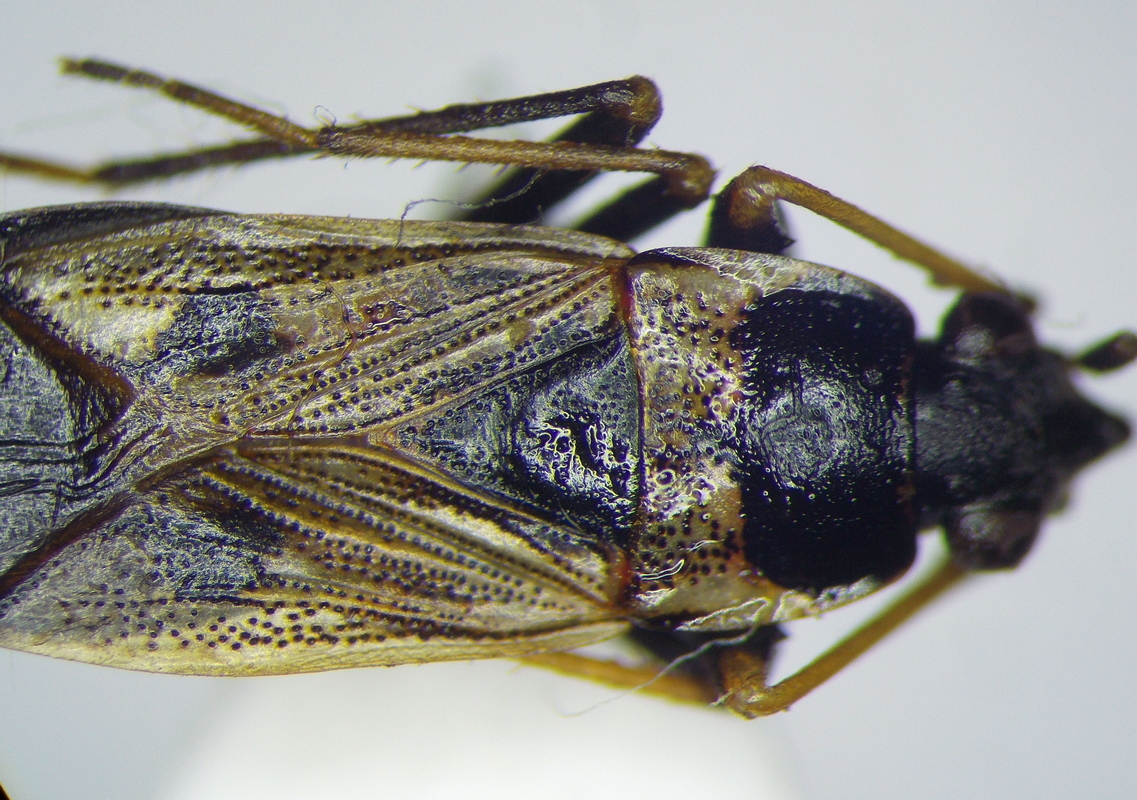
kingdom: Animalia
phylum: Arthropoda
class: Insecta
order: Hemiptera
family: Rhyparochromidae
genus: Rhyparochromus
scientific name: Rhyparochromus vulgaris
